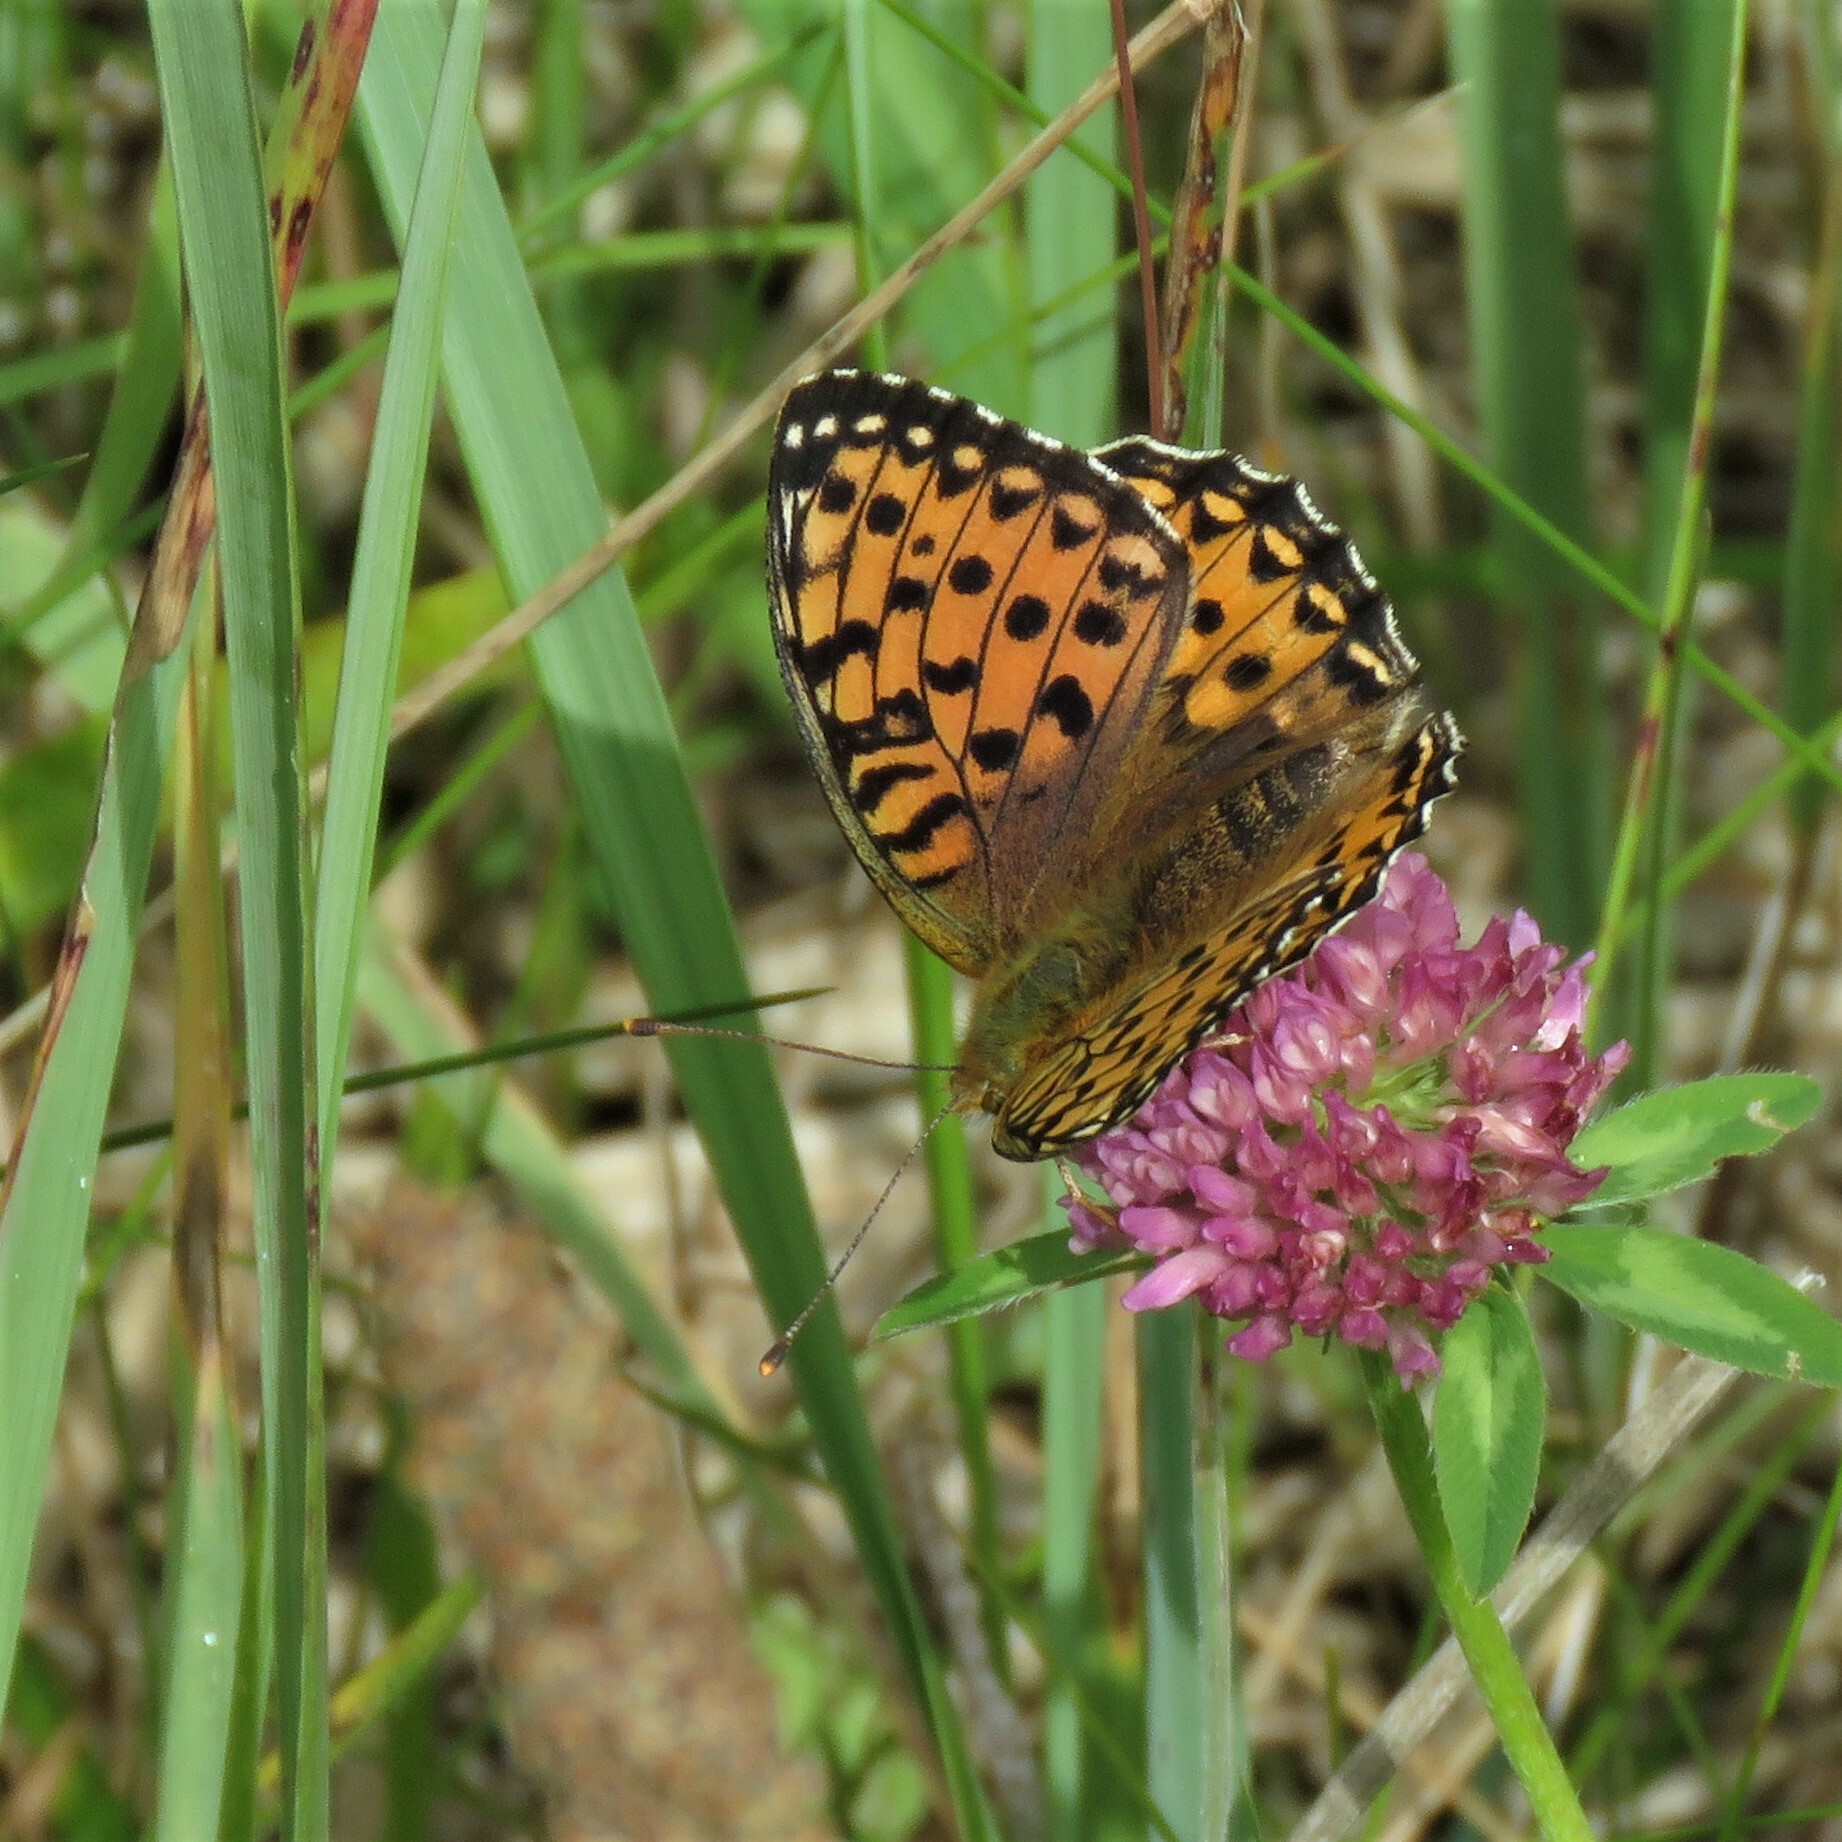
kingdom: Animalia
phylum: Arthropoda
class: Insecta
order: Lepidoptera
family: Nymphalidae
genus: Speyeria
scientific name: Speyeria aglaja
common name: Dark green fritillary
